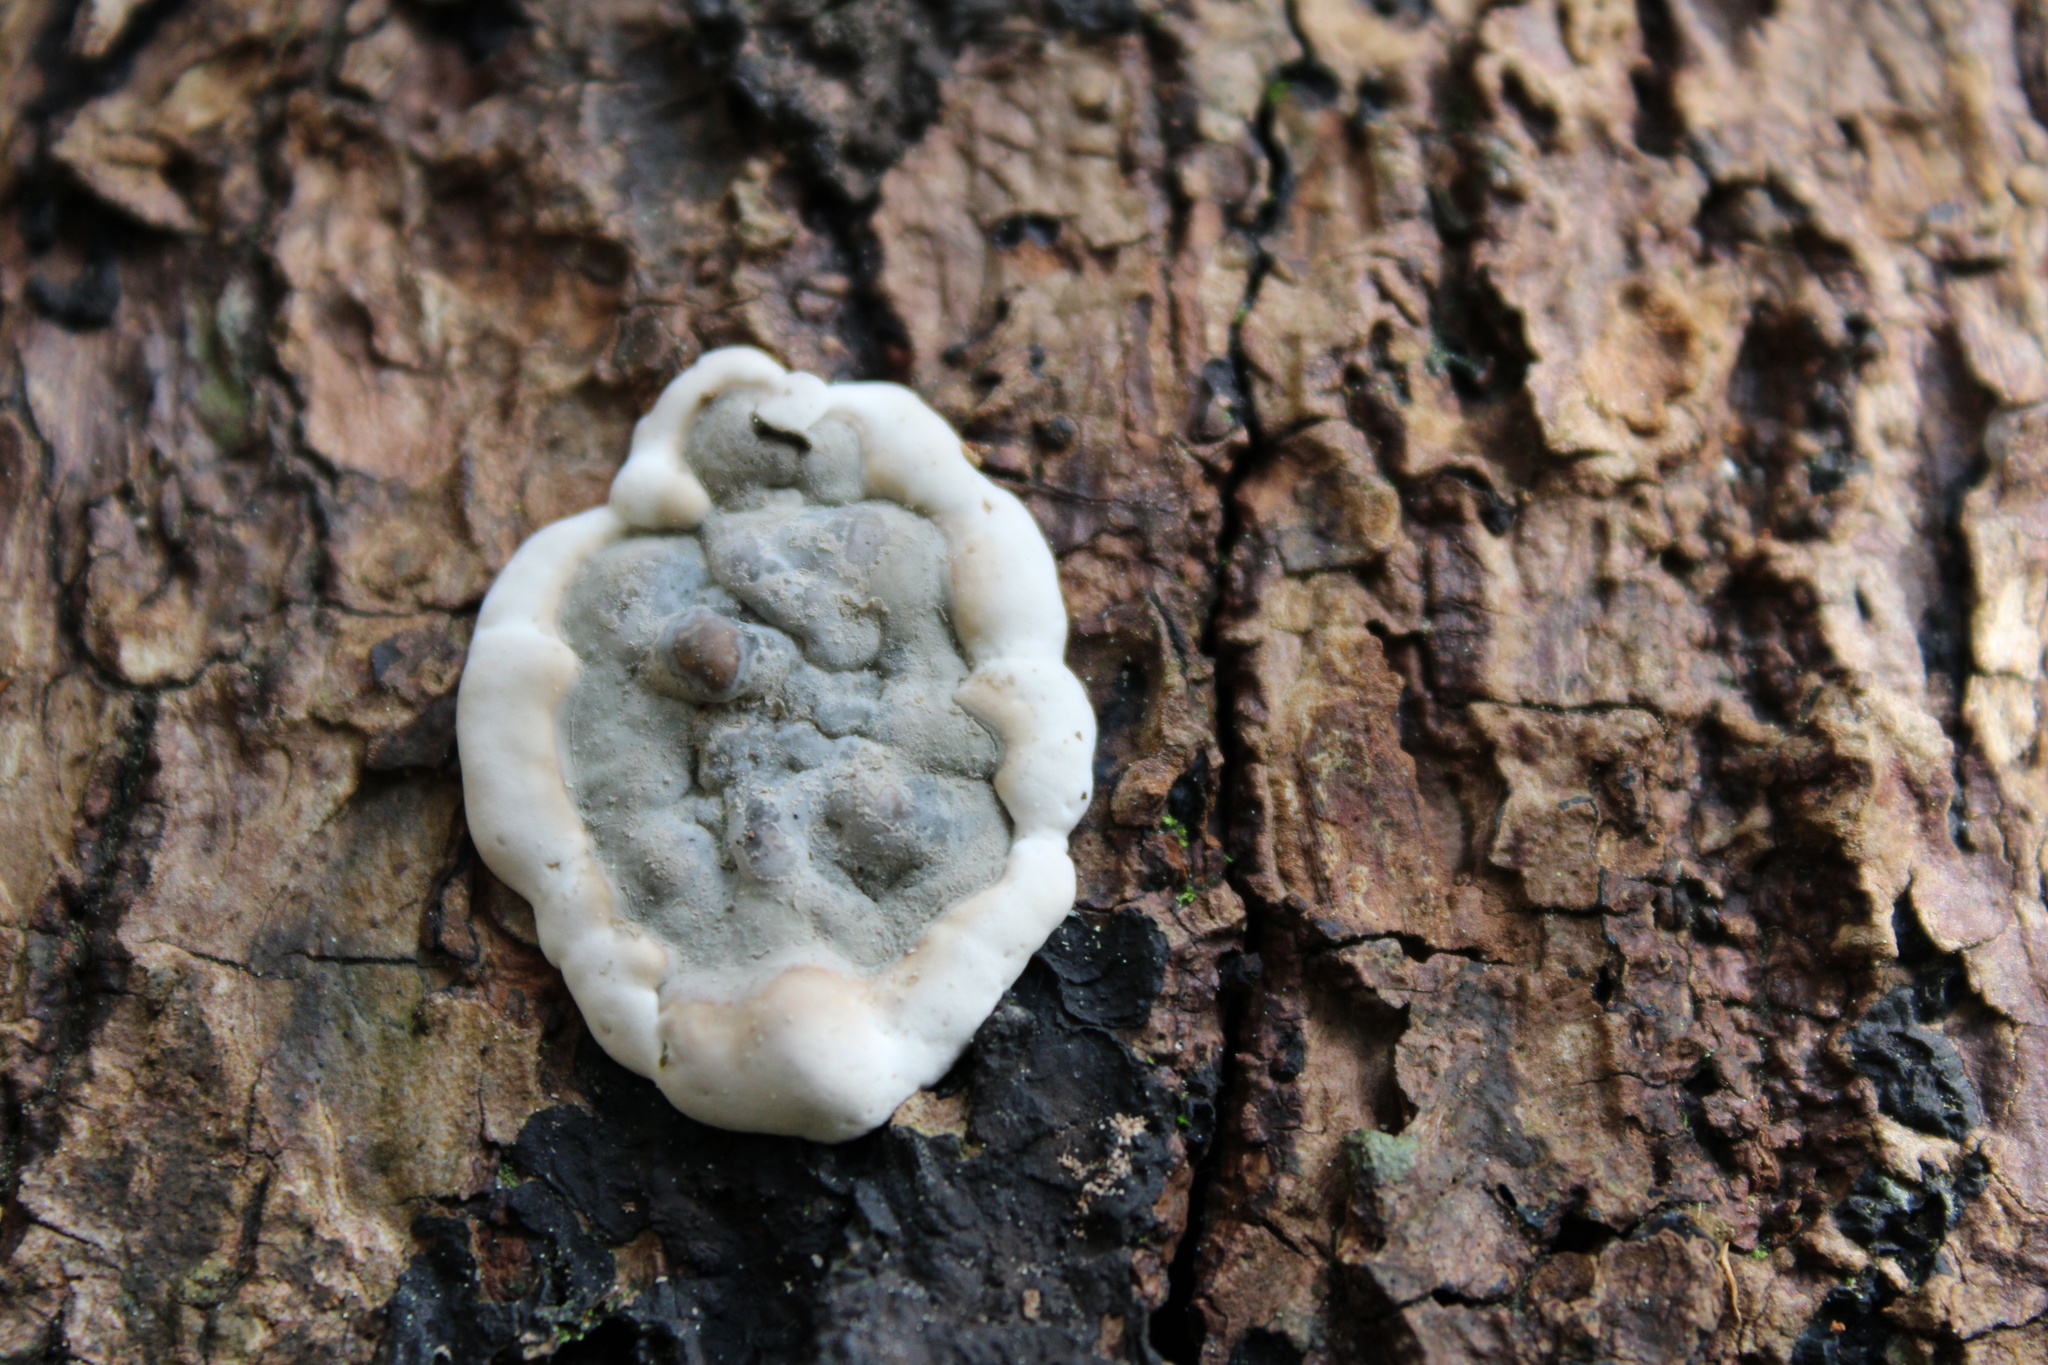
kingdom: Fungi
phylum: Ascomycota
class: Sordariomycetes
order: Xylariales
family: Xylariaceae
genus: Kretzschmaria
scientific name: Kretzschmaria deusta
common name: Brittle cinder
